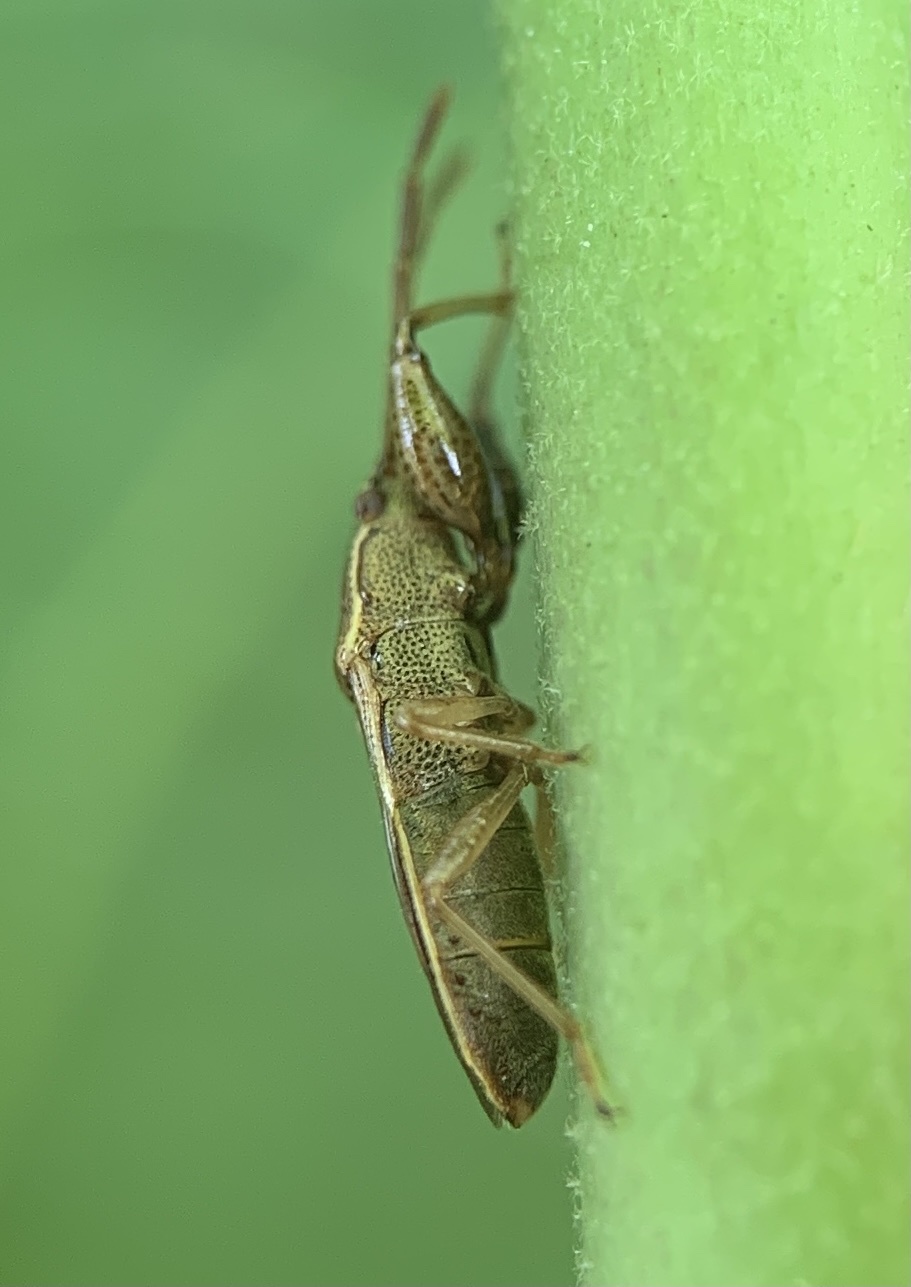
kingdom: Animalia
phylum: Arthropoda
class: Insecta
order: Hemiptera
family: Pachygronthidae
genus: Oedancala
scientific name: Oedancala dorsalis
